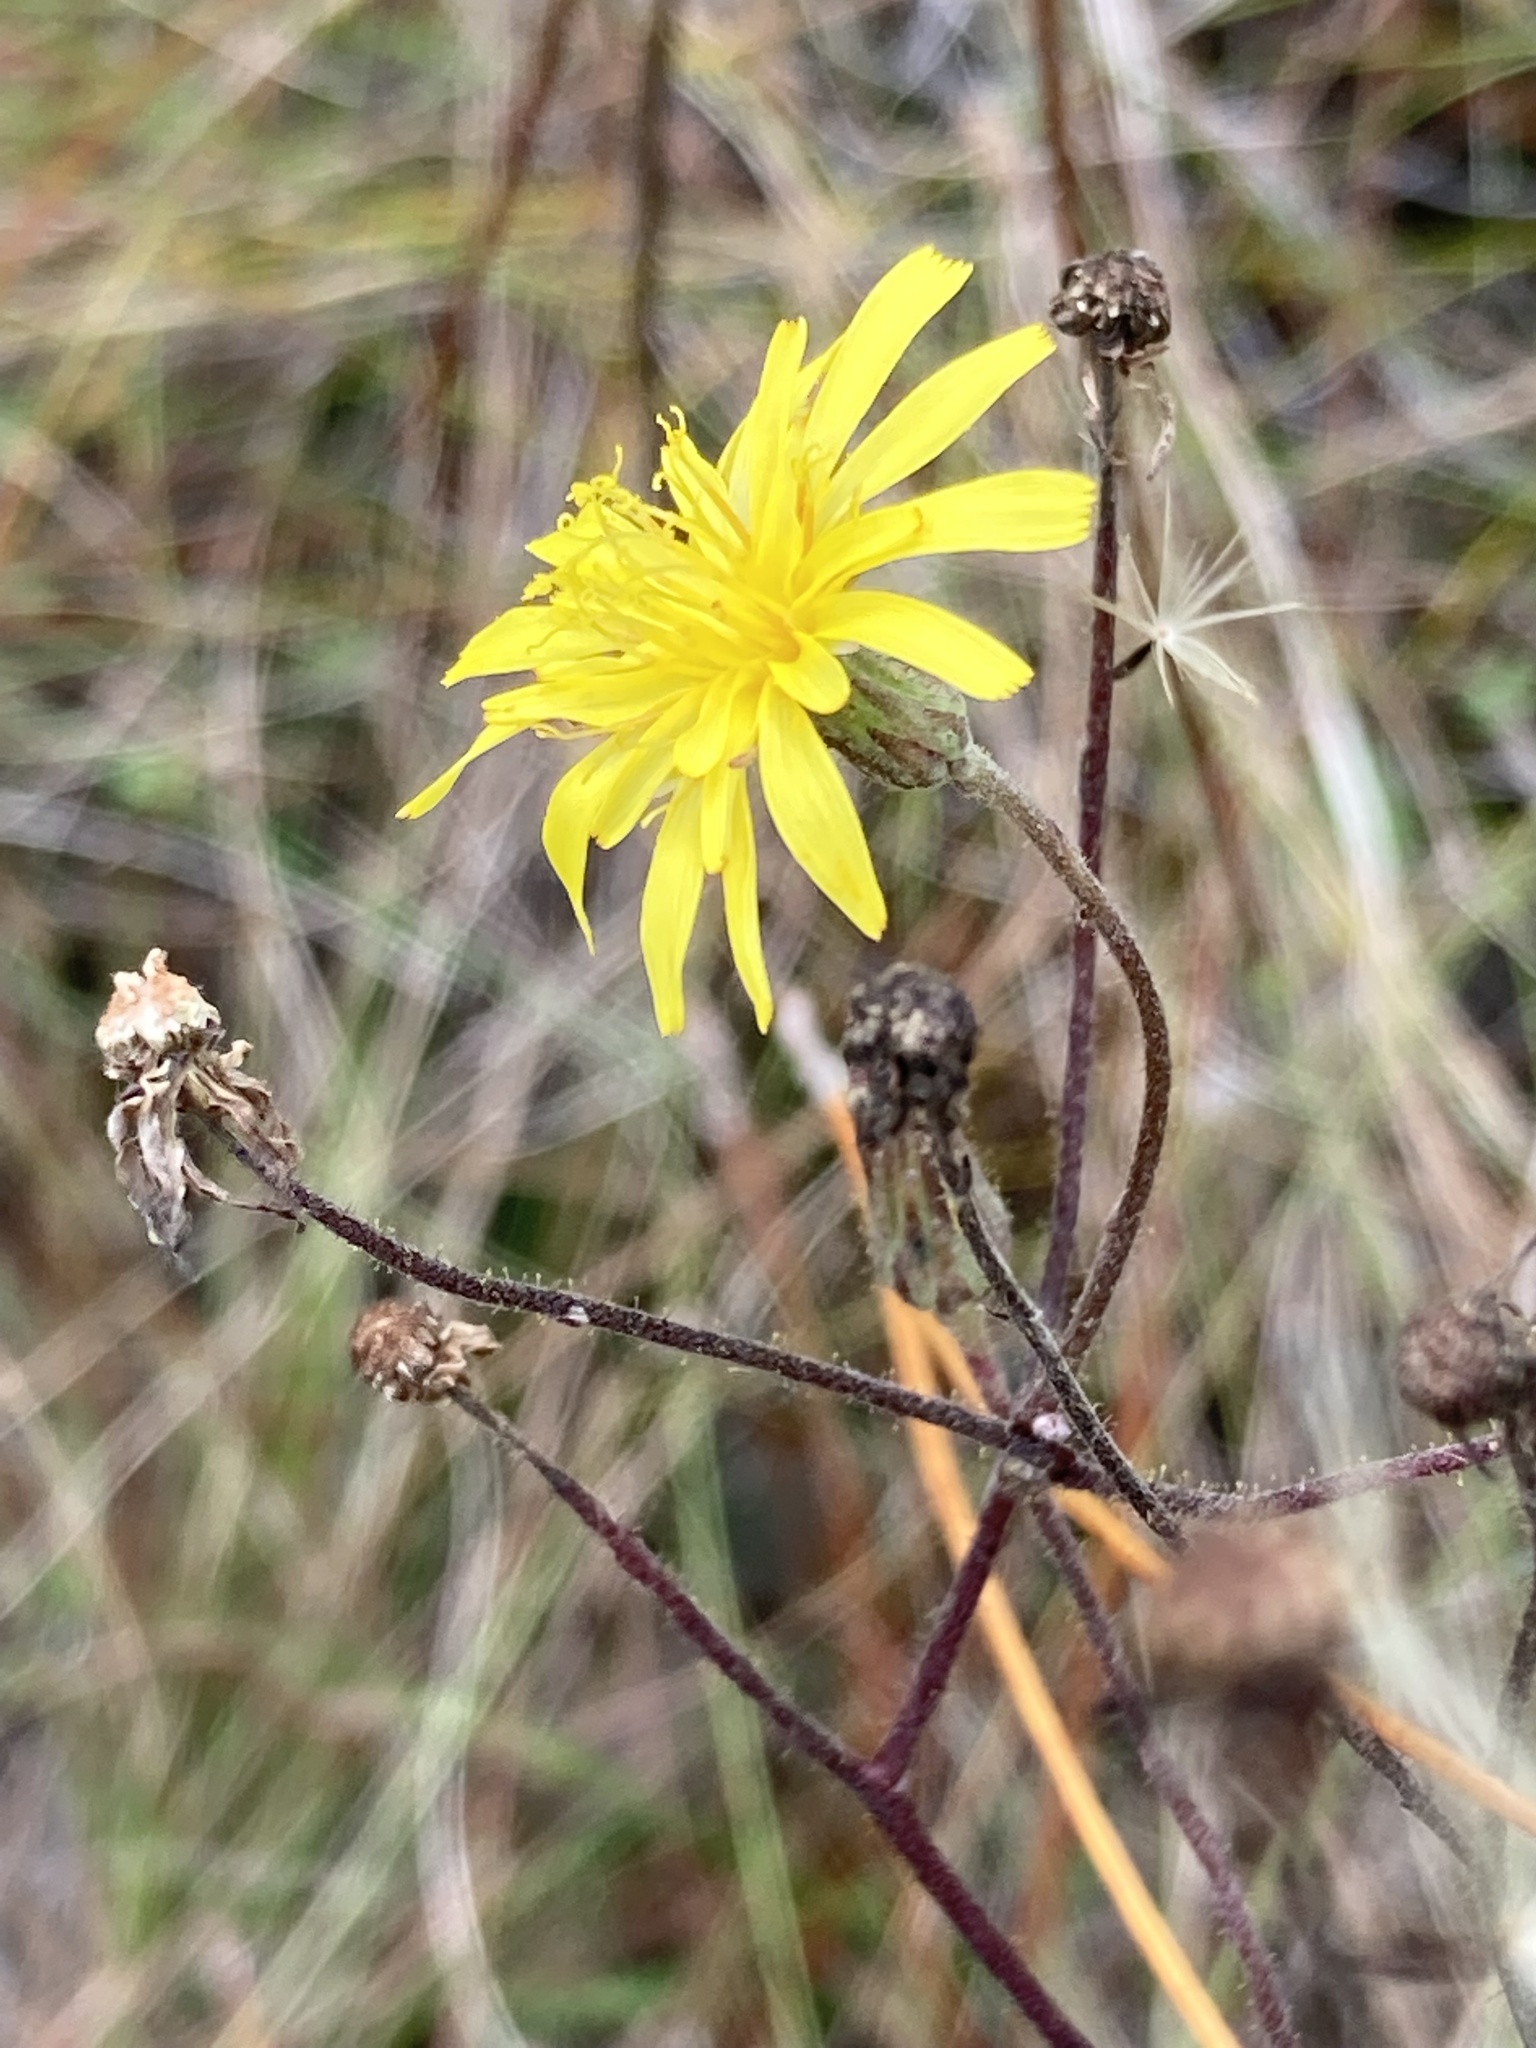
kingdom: Plantae
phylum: Tracheophyta
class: Magnoliopsida
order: Asterales
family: Asteraceae
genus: Hieracium
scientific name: Hieracium megacephalum
